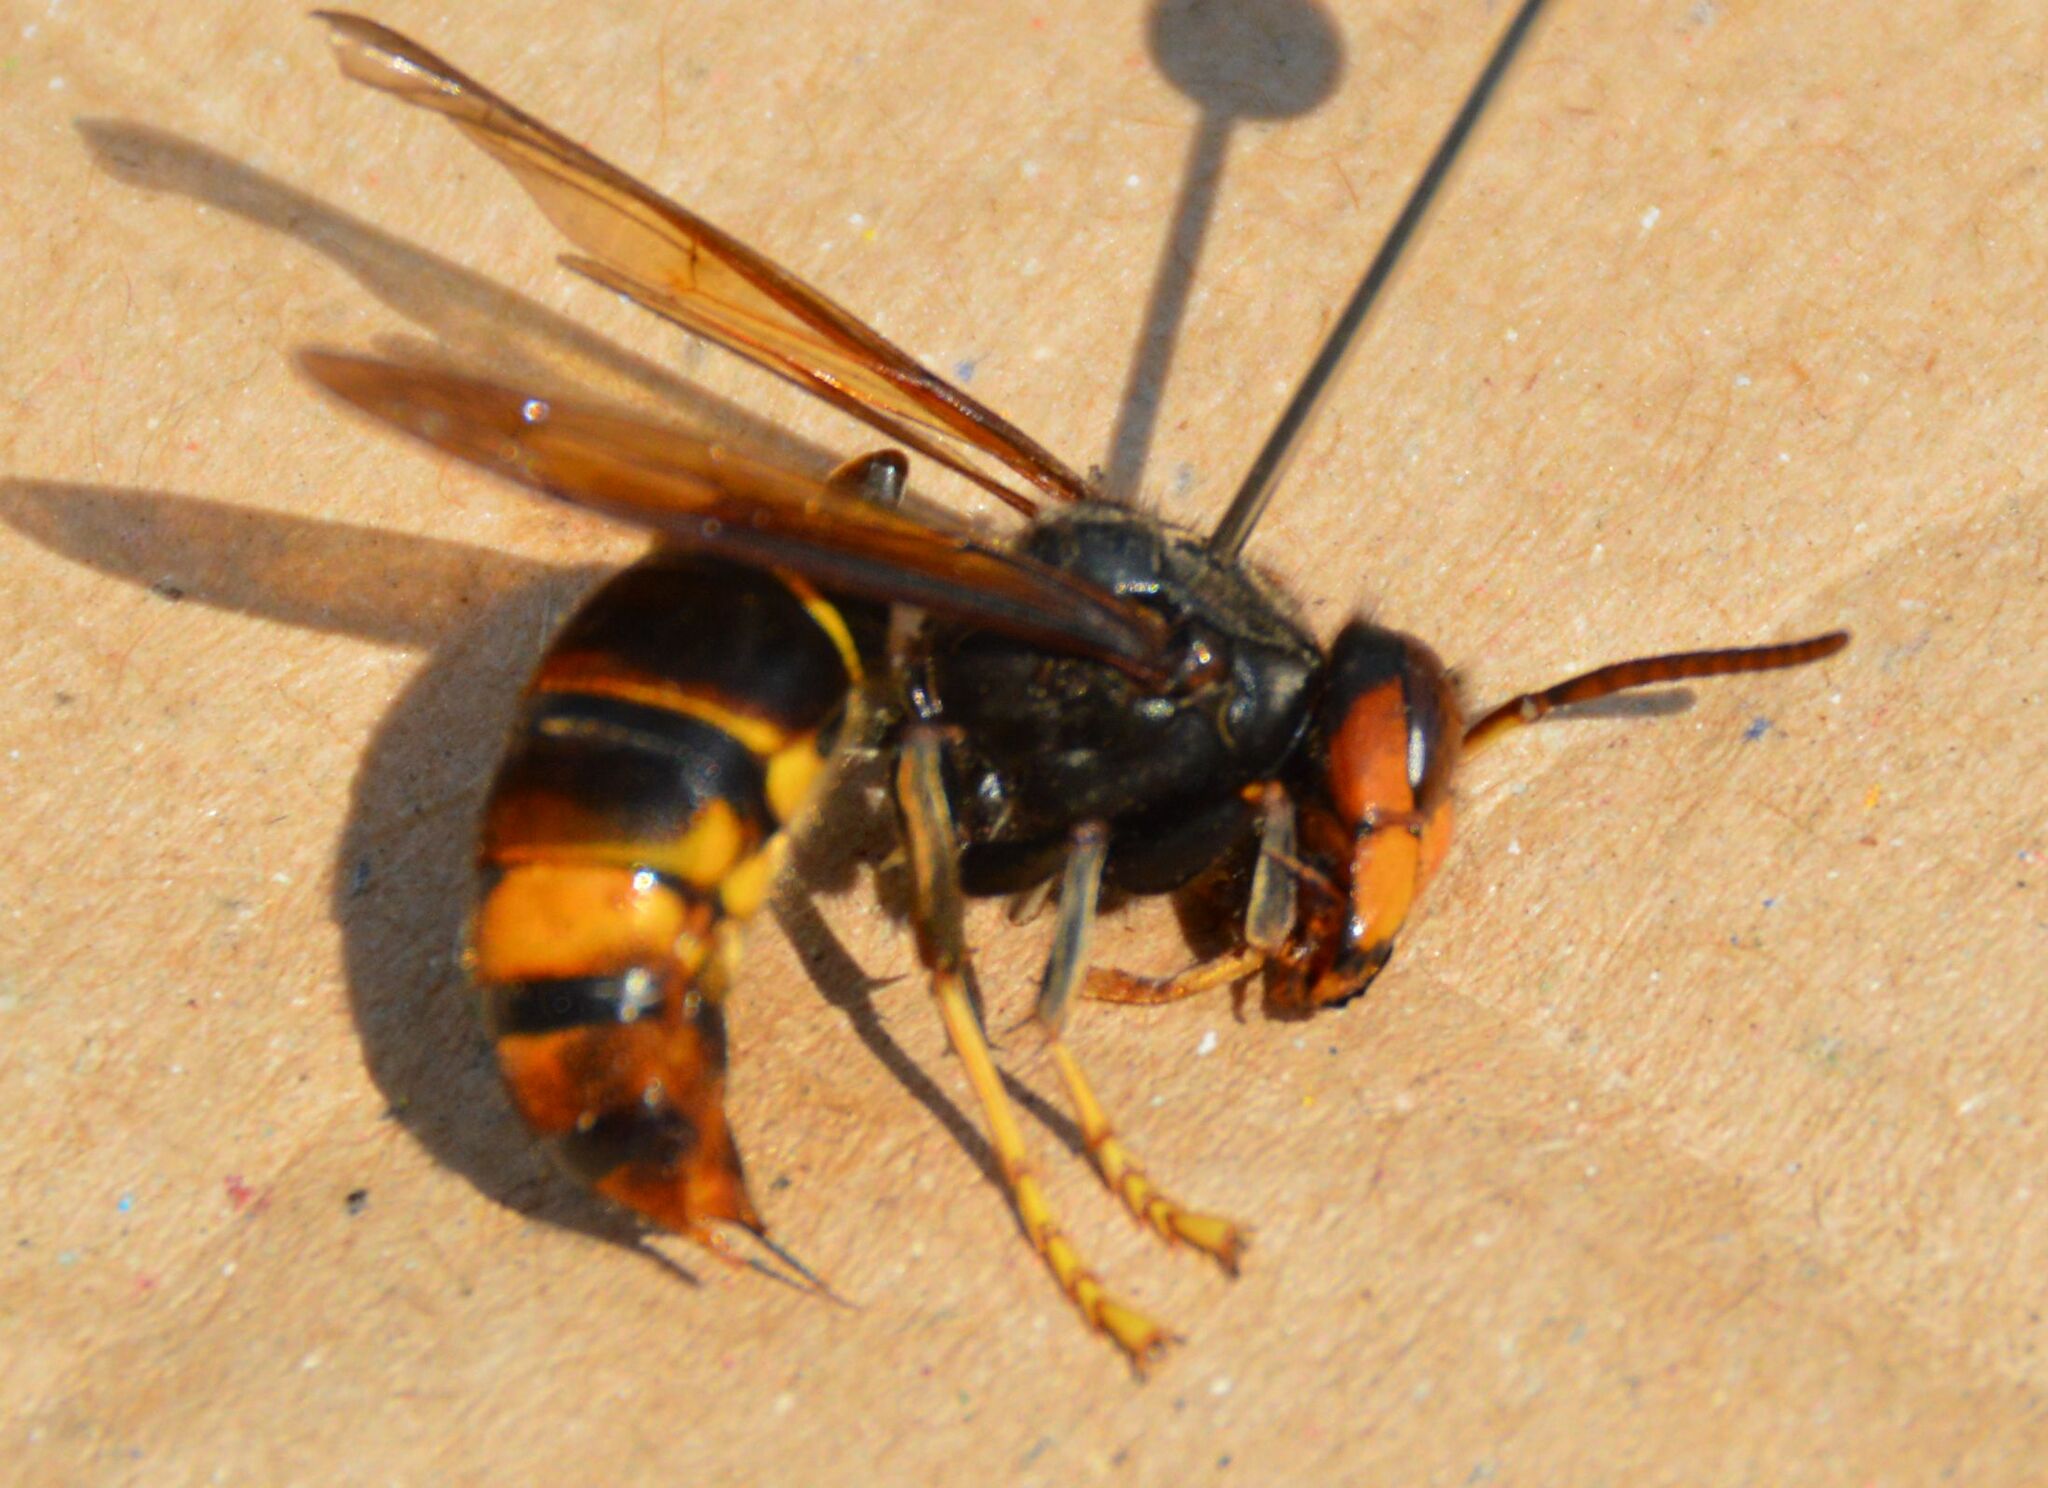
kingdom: Animalia
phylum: Arthropoda
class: Insecta
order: Hymenoptera
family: Vespidae
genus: Vespa
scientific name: Vespa velutina
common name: Asian hornet
